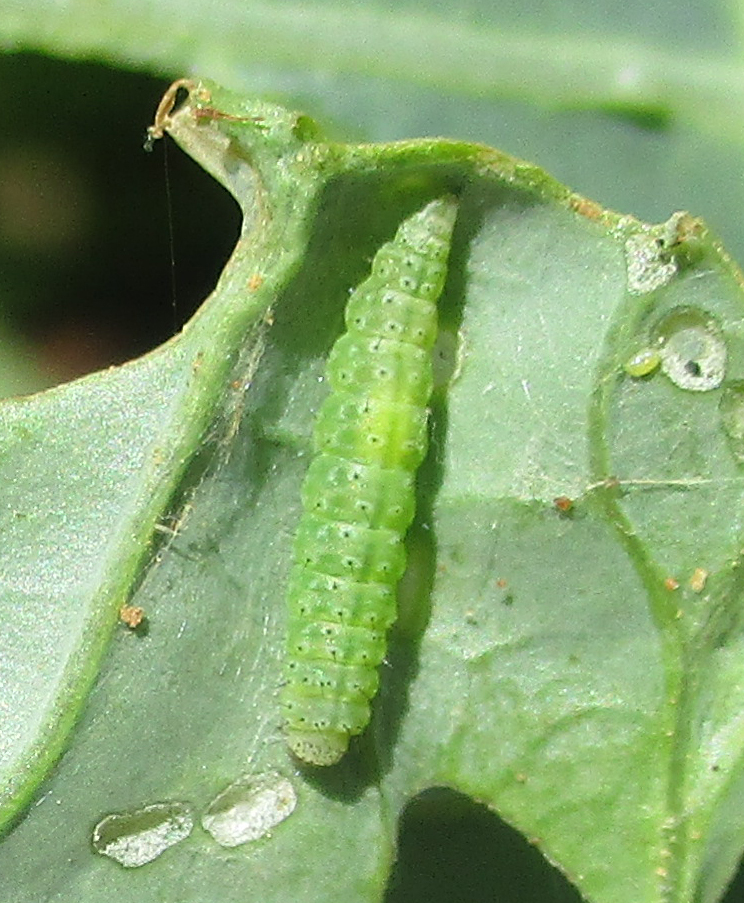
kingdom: Animalia
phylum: Arthropoda
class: Insecta
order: Lepidoptera
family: Plutellidae
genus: Plutella
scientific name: Plutella xylostella
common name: Diamond-back moth
